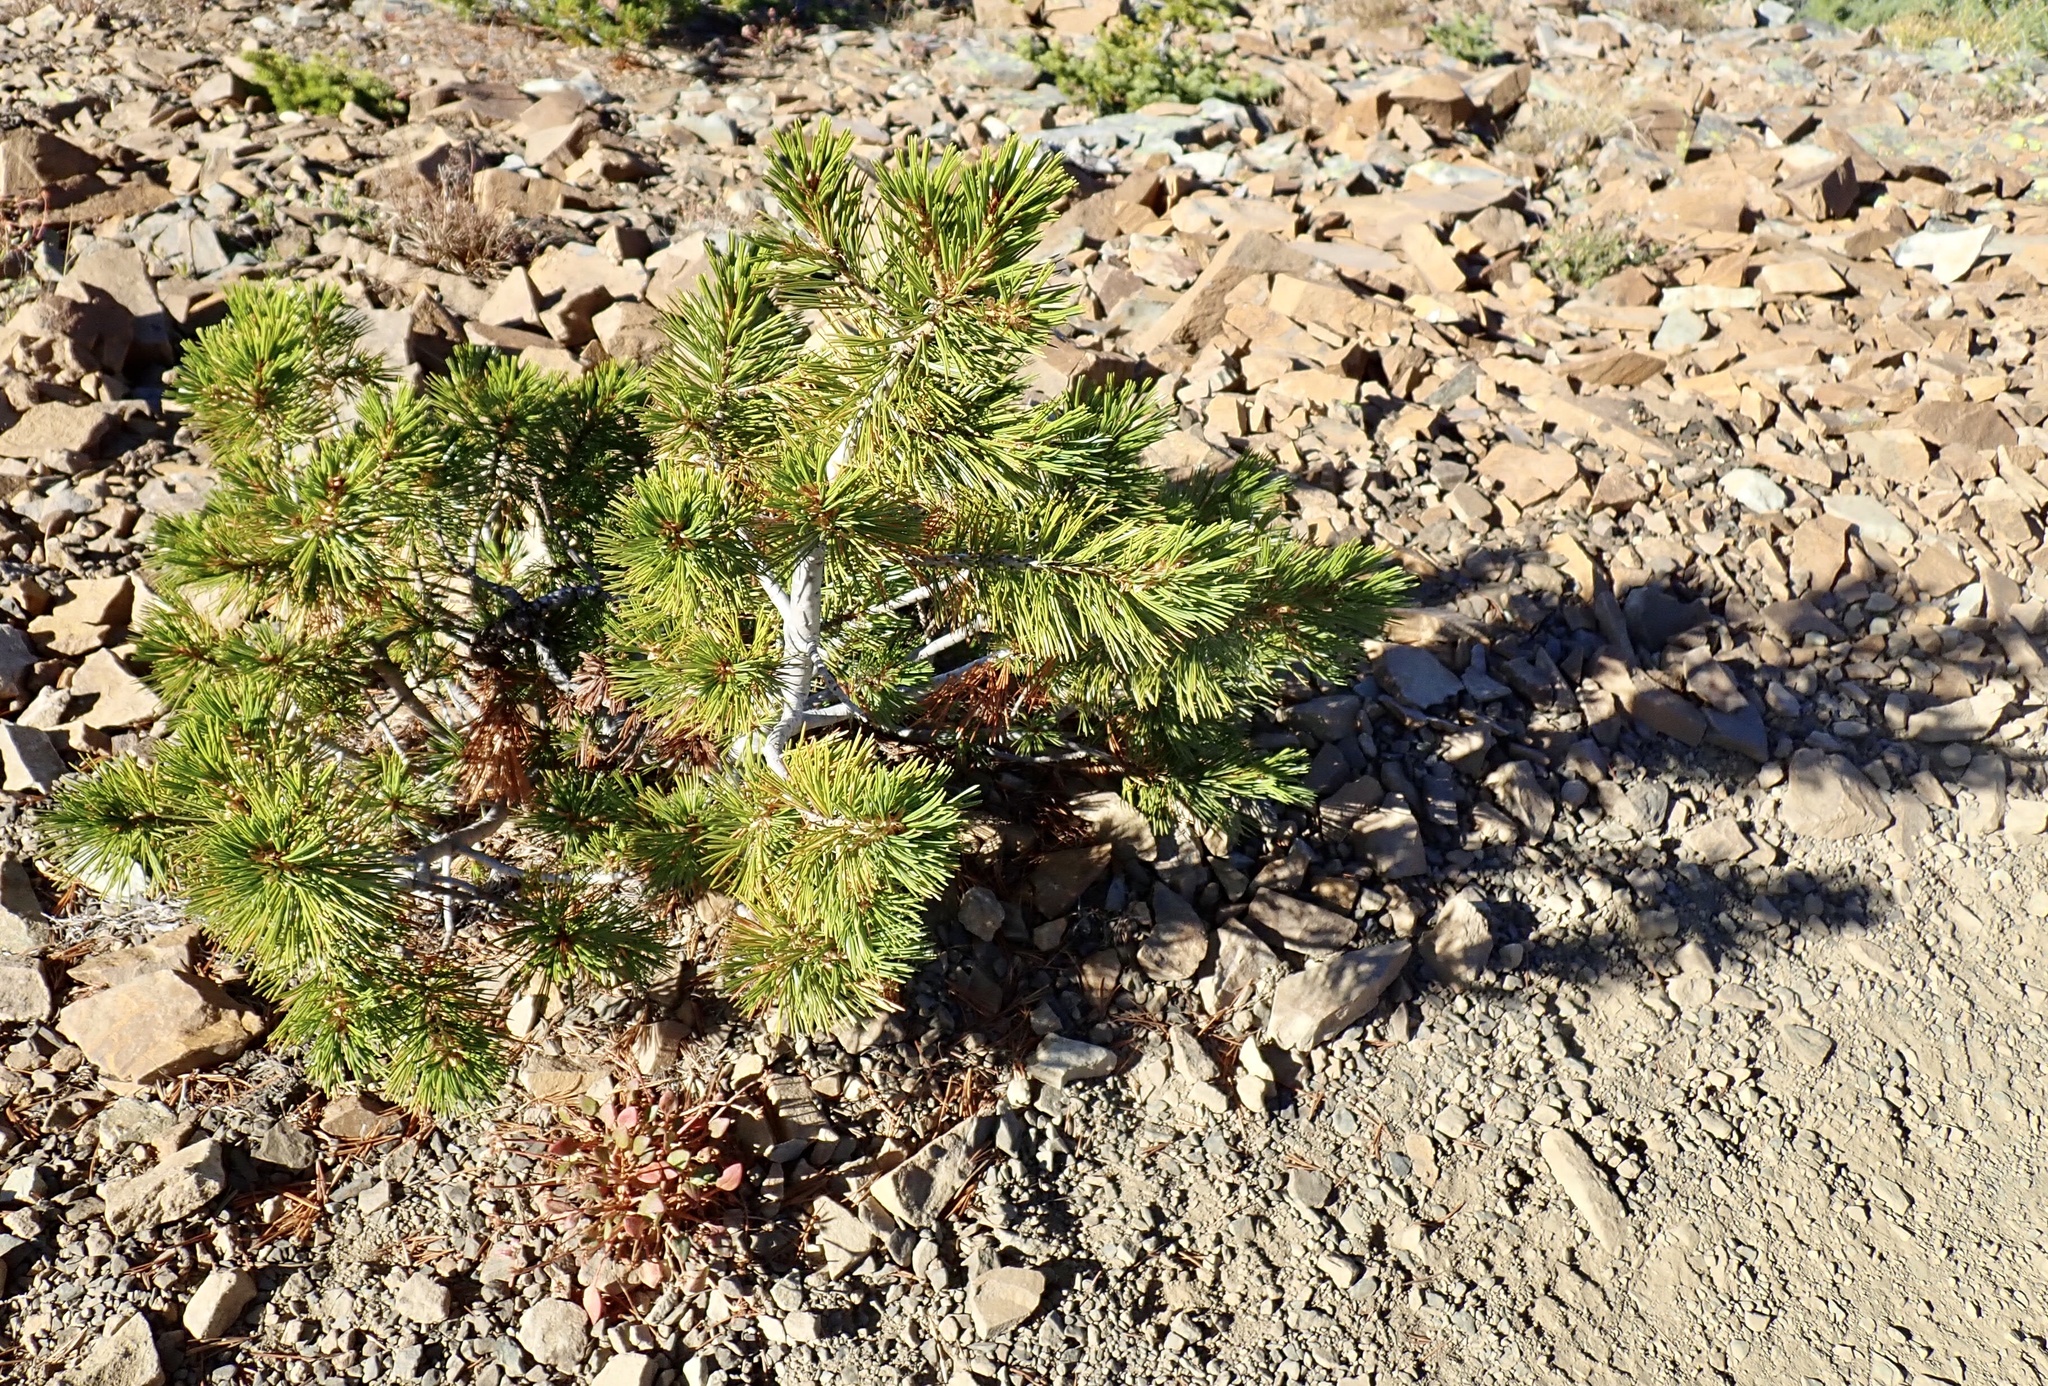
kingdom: Plantae
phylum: Tracheophyta
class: Pinopsida
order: Pinales
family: Pinaceae
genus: Pinus
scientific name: Pinus albicaulis
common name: Whitebark pine
